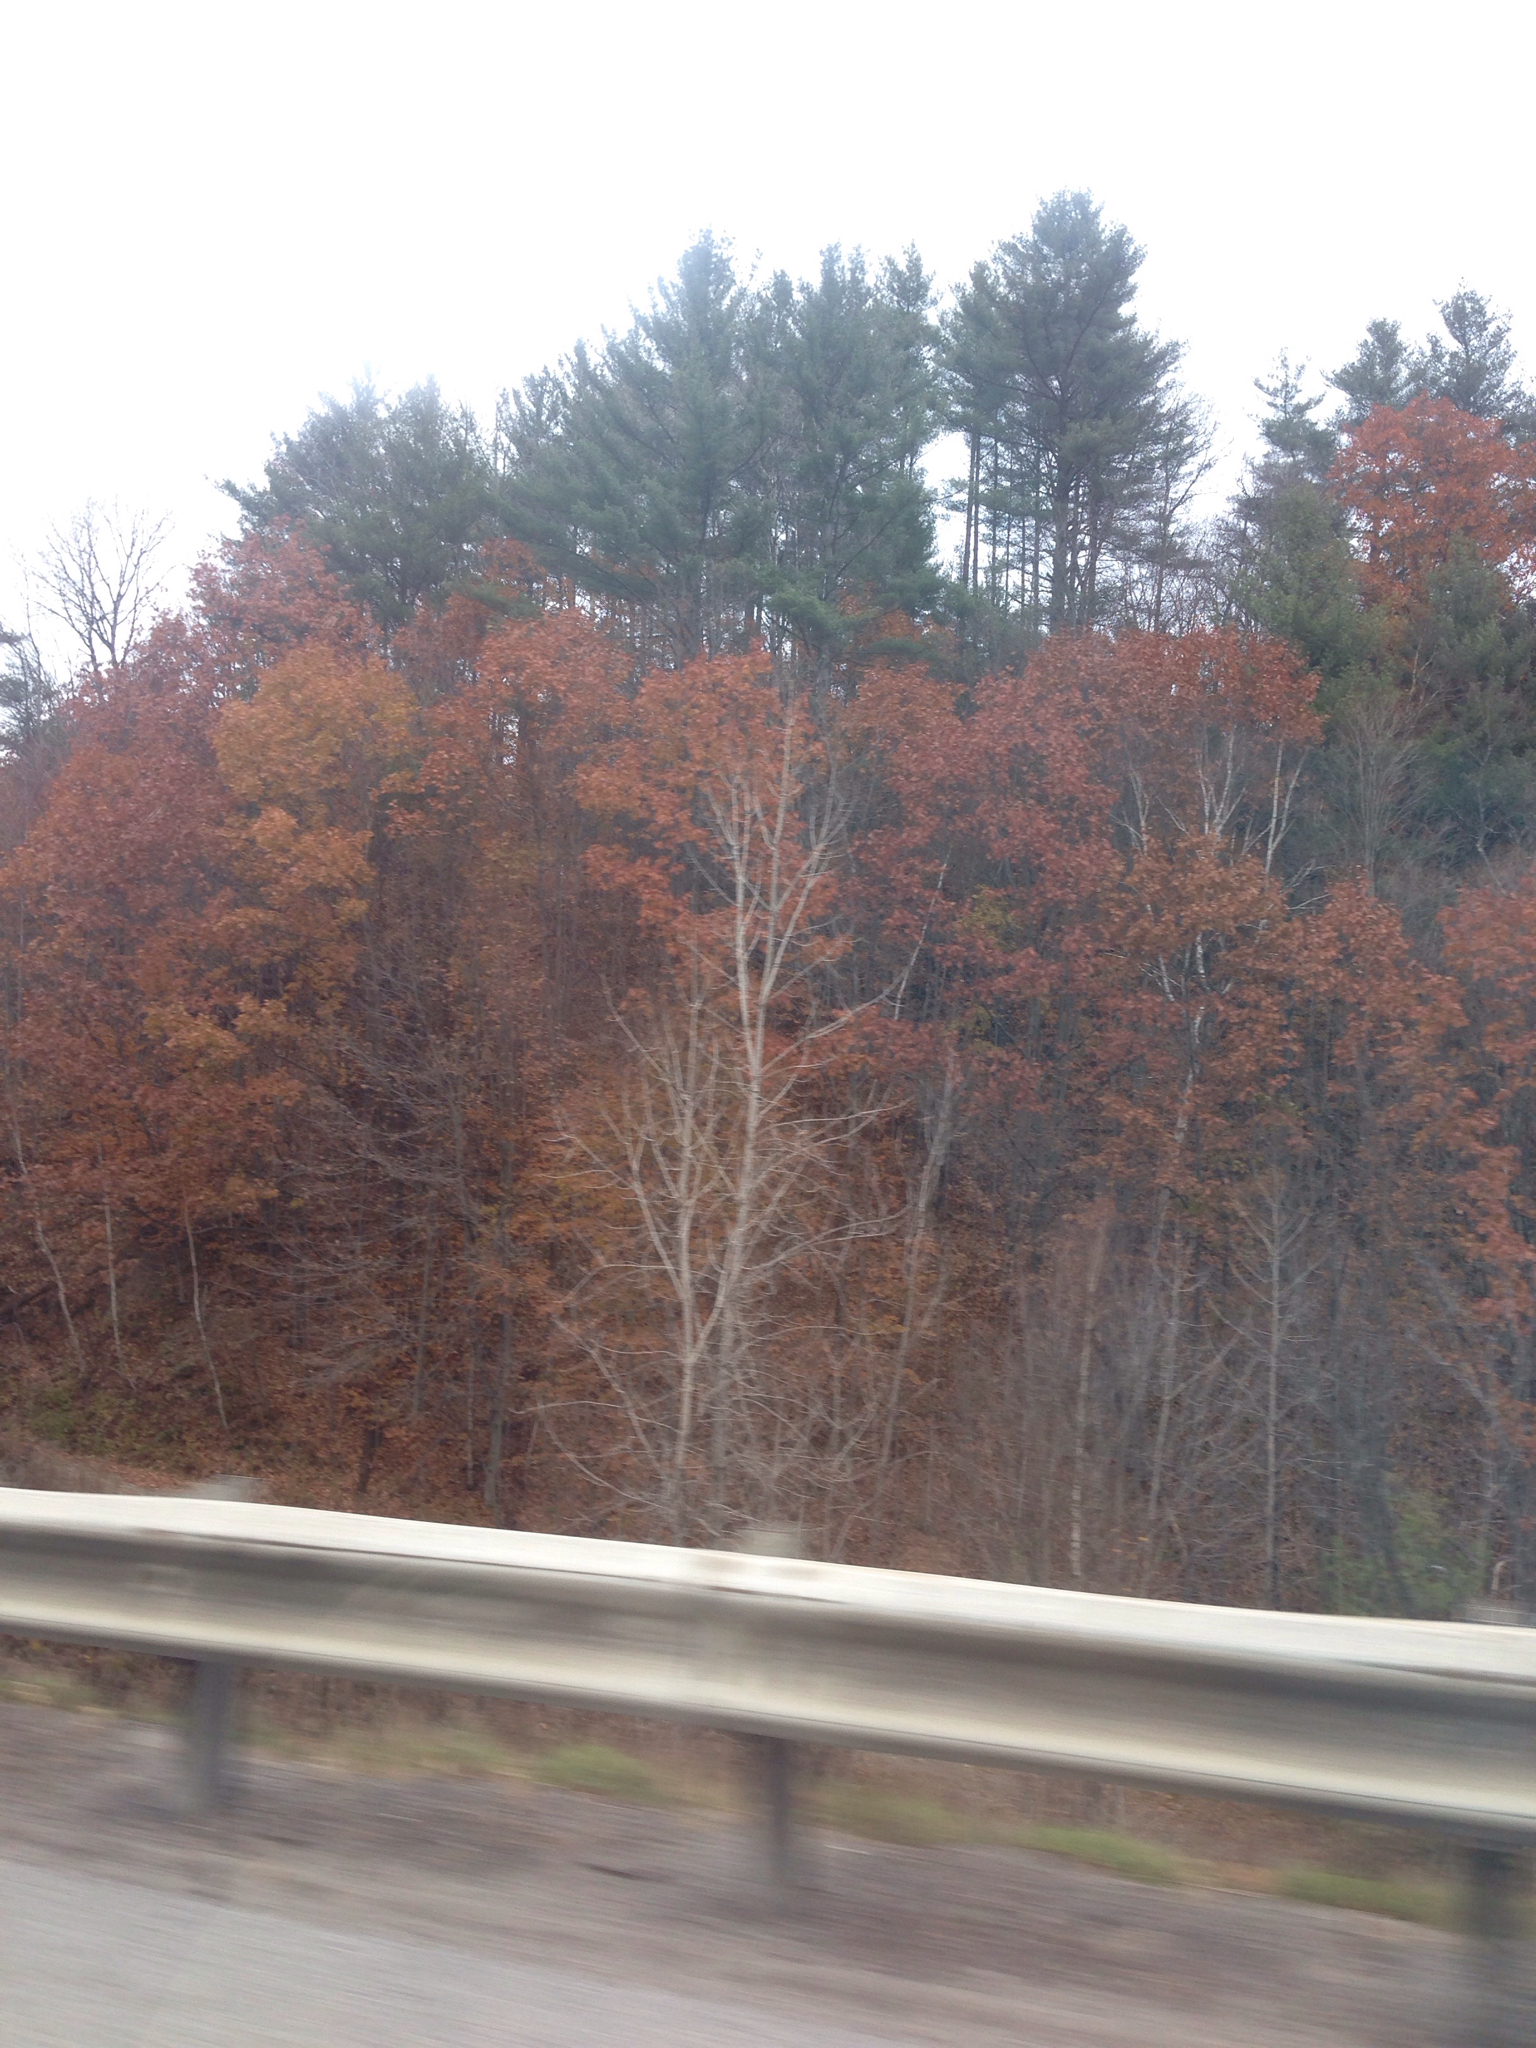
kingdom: Plantae
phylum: Tracheophyta
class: Pinopsida
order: Pinales
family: Pinaceae
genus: Pinus
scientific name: Pinus strobus
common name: Weymouth pine
